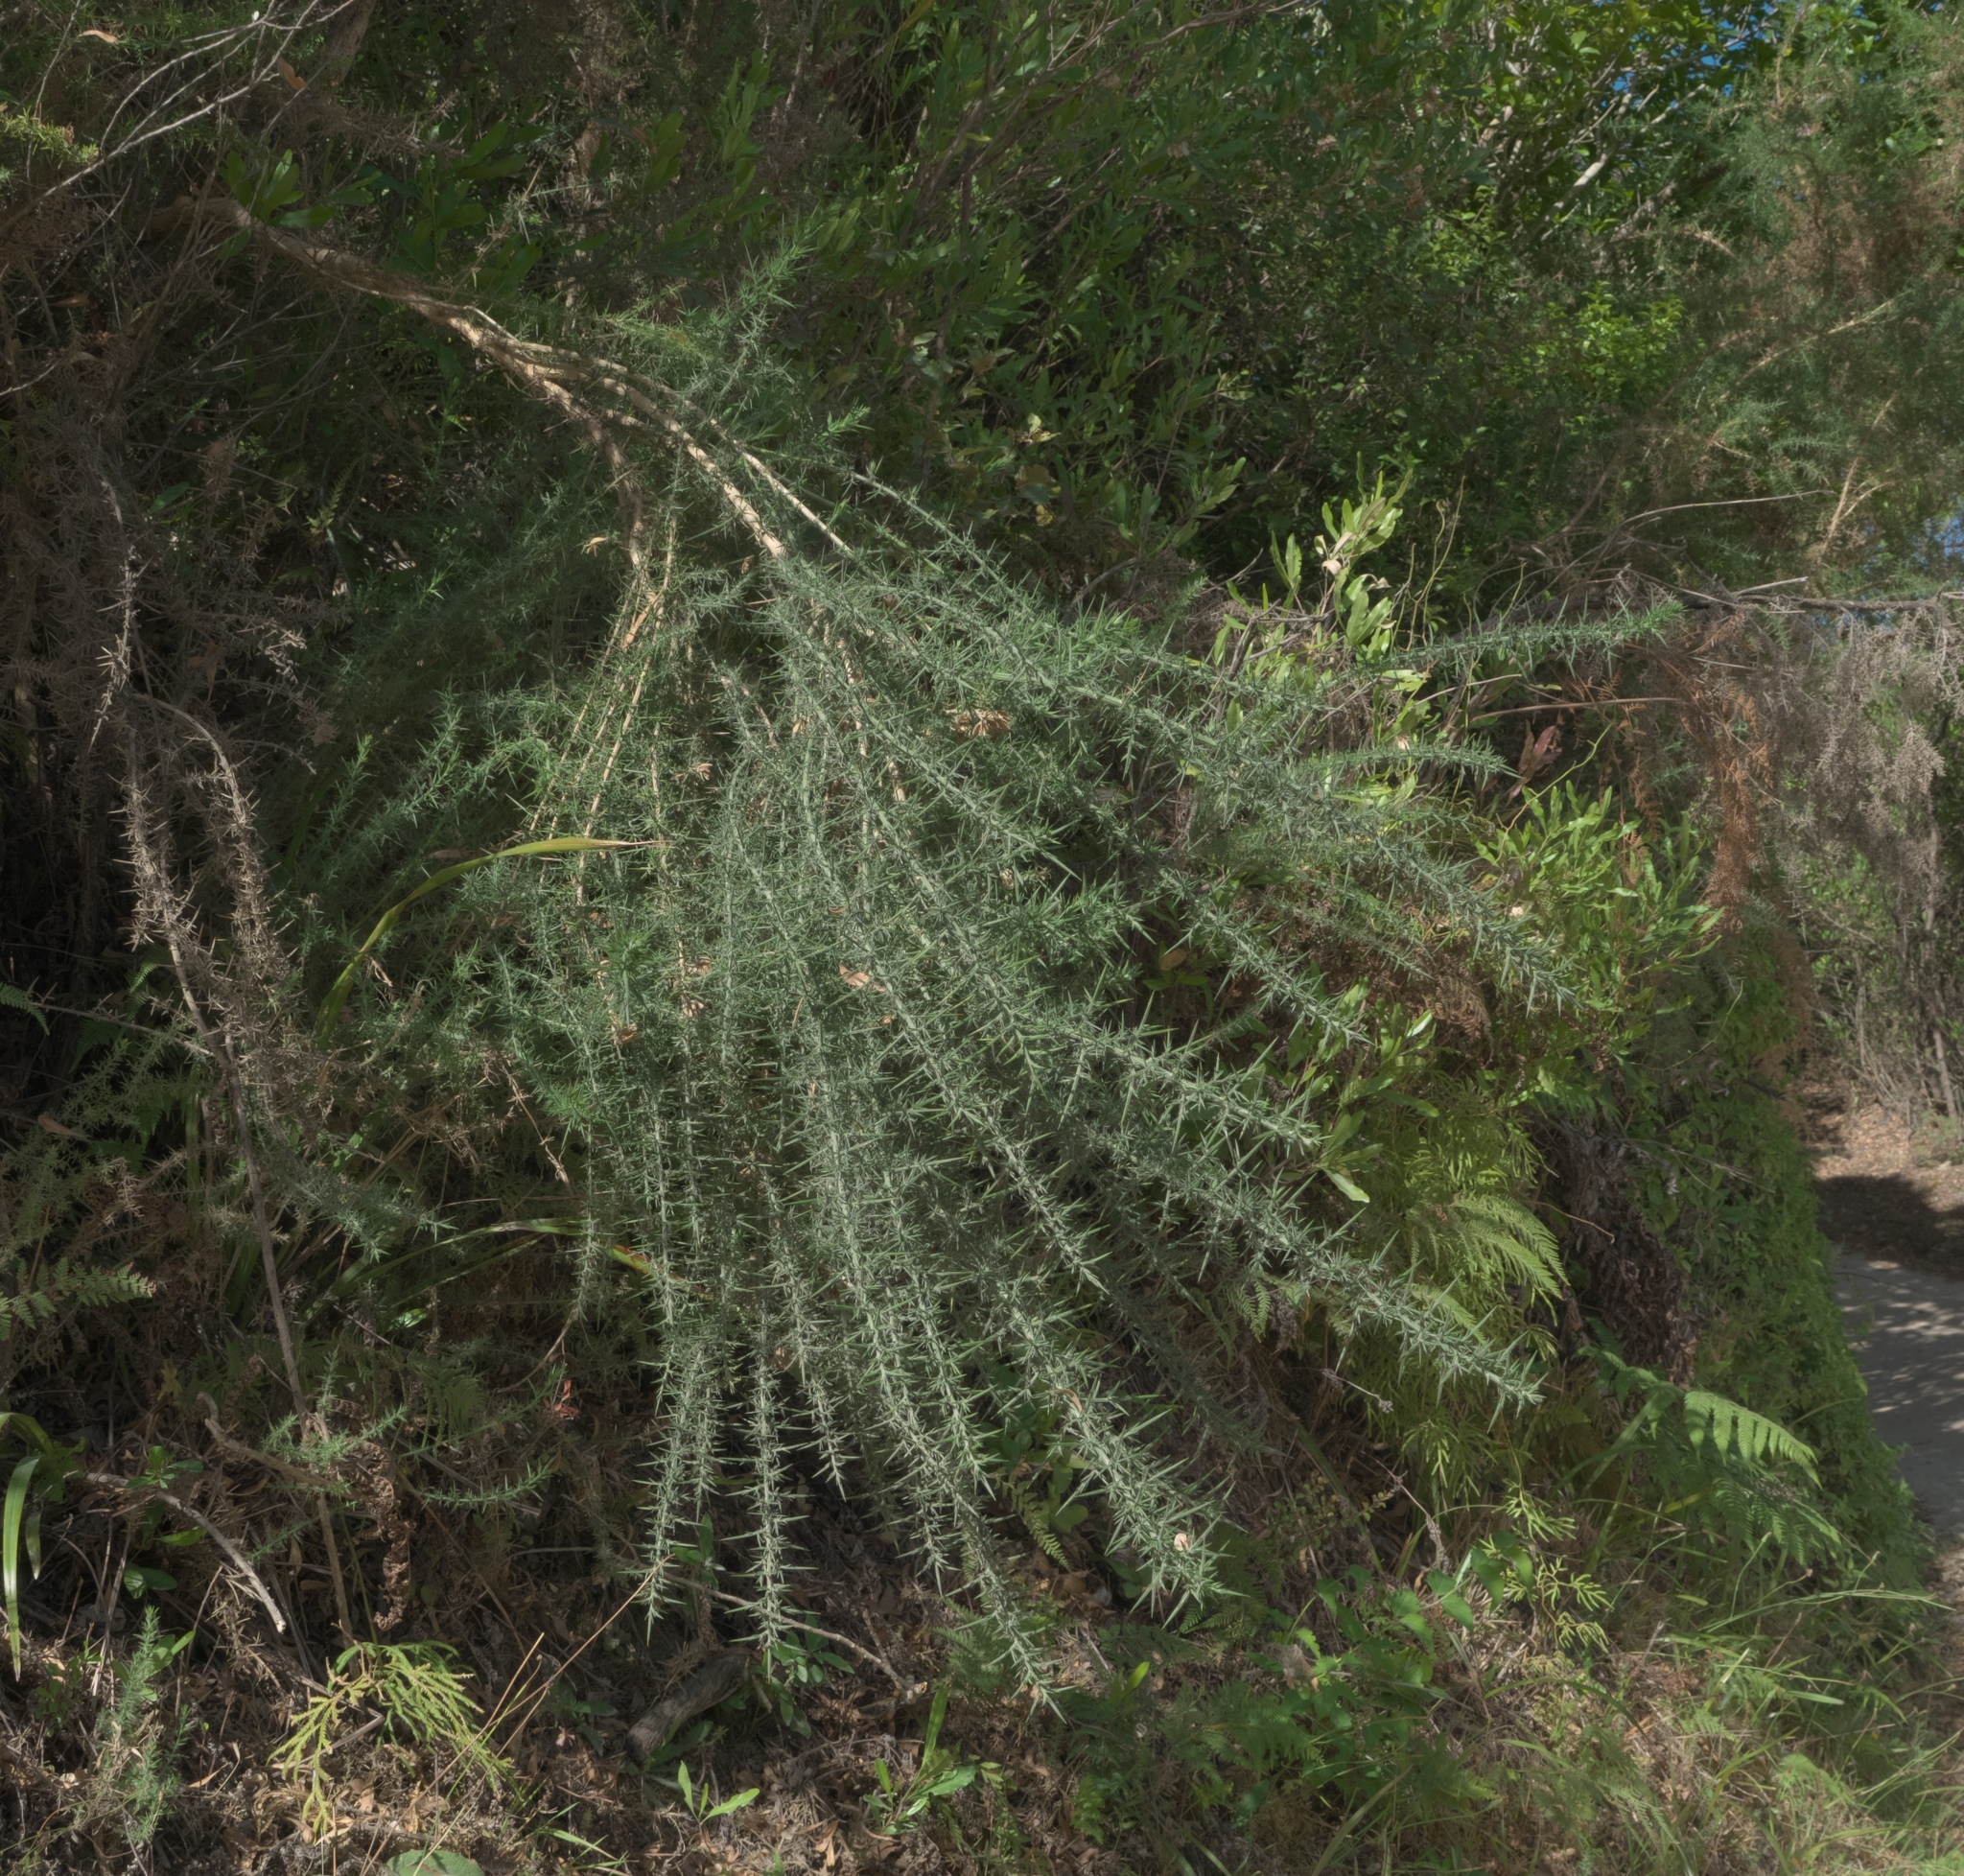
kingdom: Plantae
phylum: Tracheophyta
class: Magnoliopsida
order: Fabales
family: Fabaceae
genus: Ulex
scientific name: Ulex europaeus
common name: Common gorse
